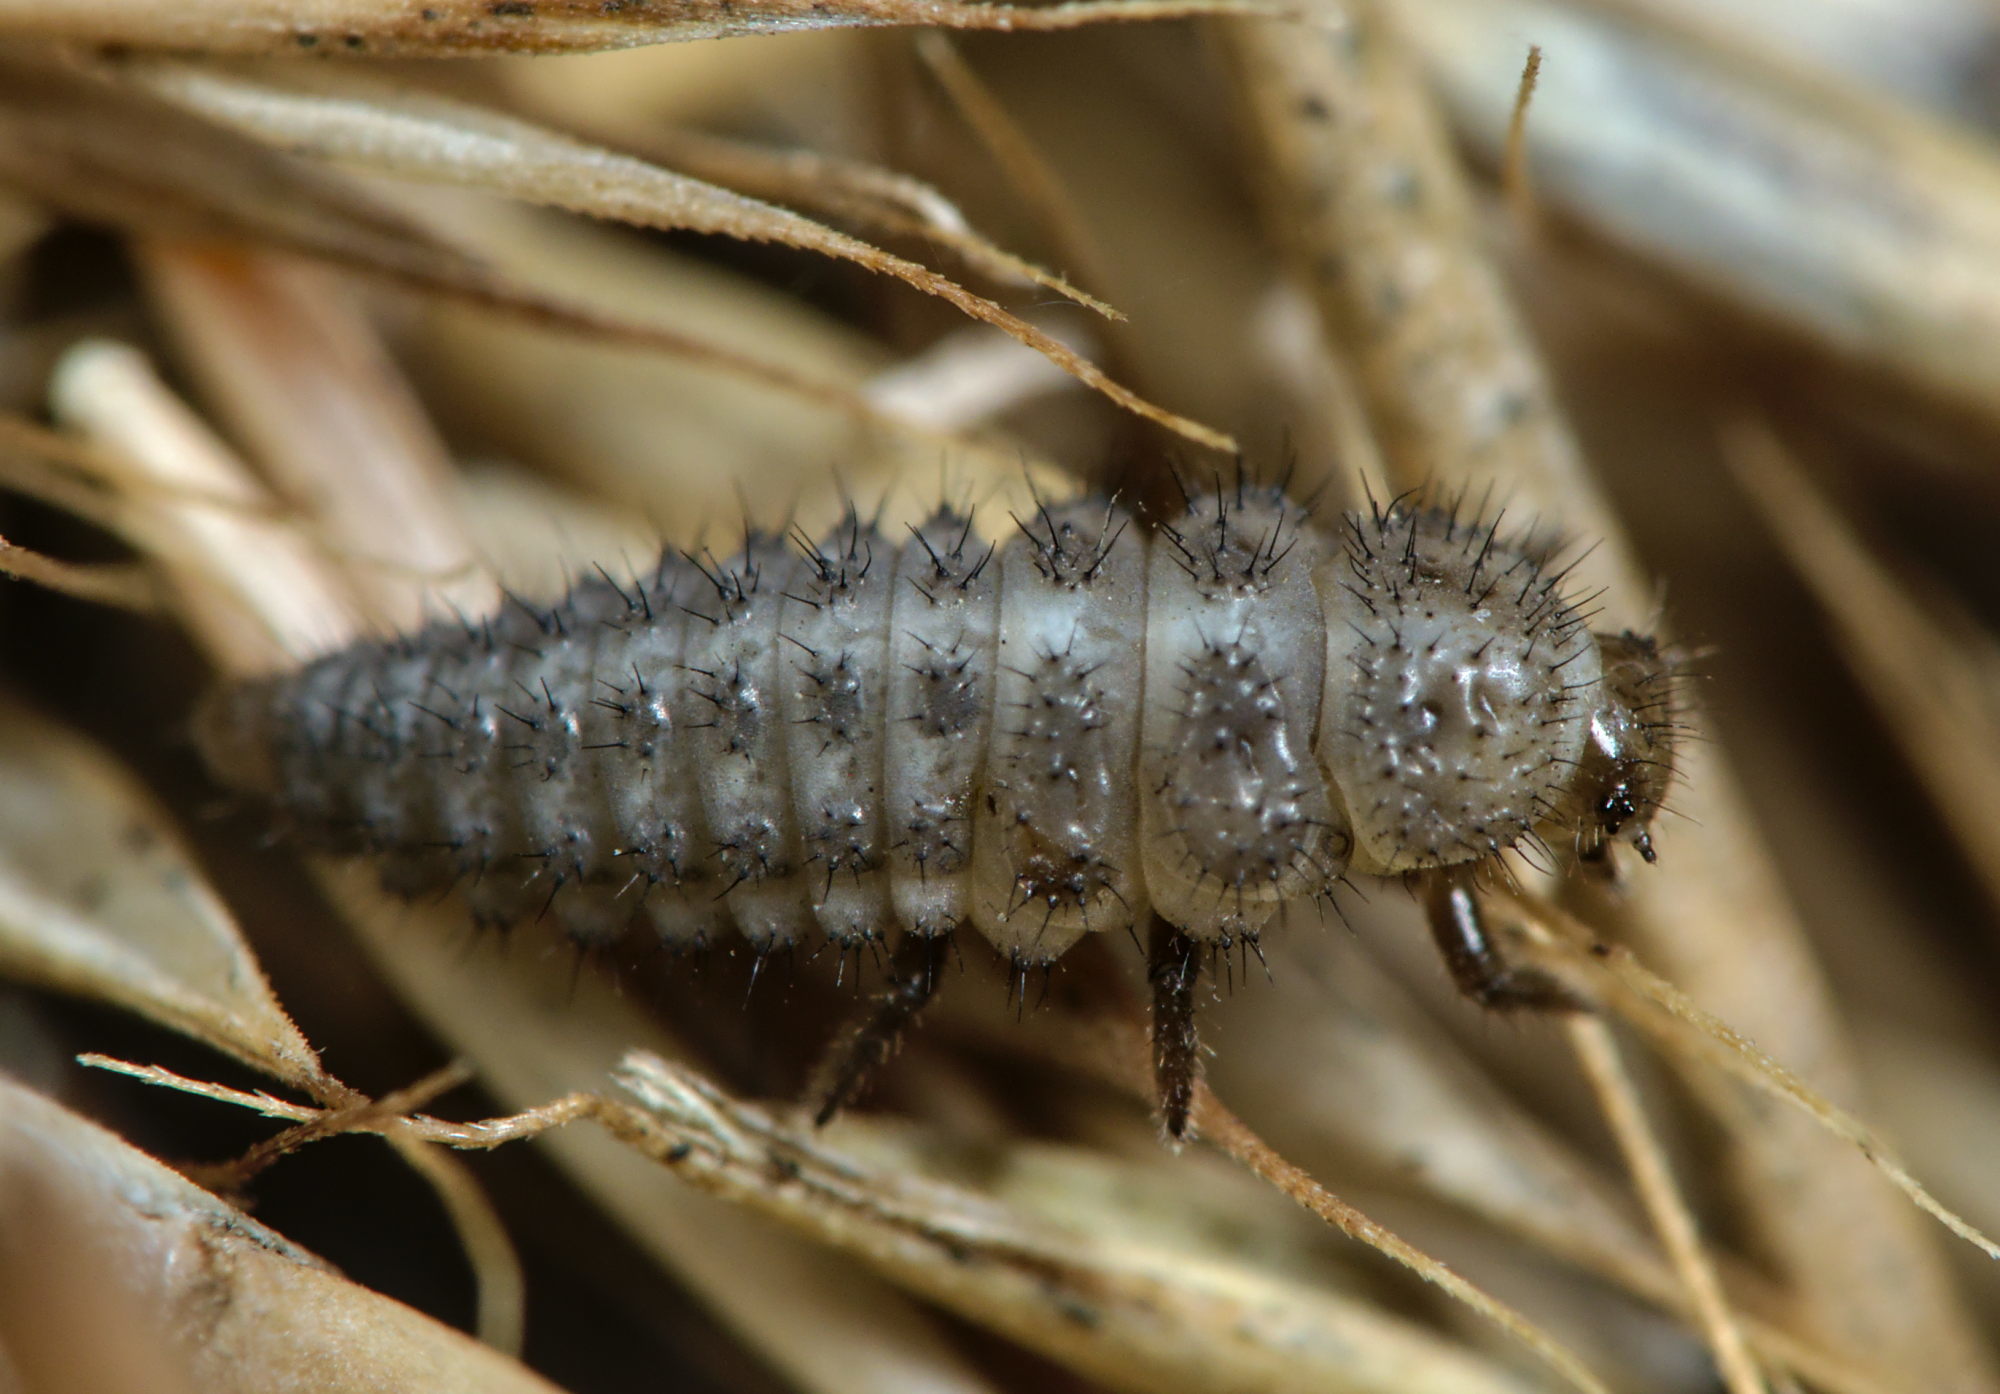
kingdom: Animalia
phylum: Arthropoda
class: Insecta
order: Coleoptera
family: Coccinellidae
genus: Tytthaspis
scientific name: Tytthaspis sedecimpunctata
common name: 16-spot ladybird
